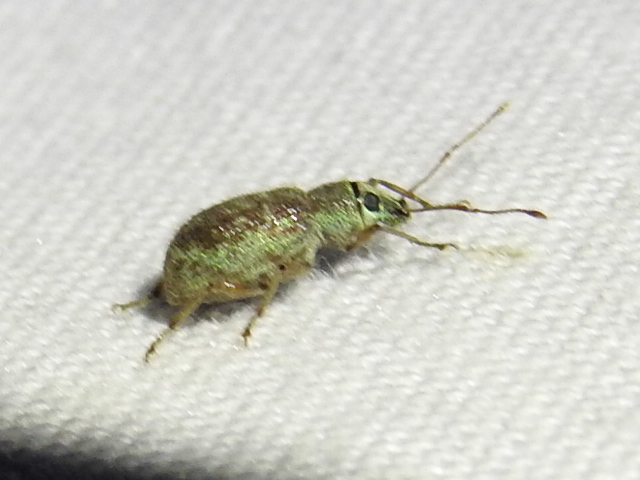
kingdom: Animalia
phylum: Arthropoda
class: Insecta
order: Coleoptera
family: Curculionidae
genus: Cyrtepistomus
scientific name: Cyrtepistomus castaneus
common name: Weevil
